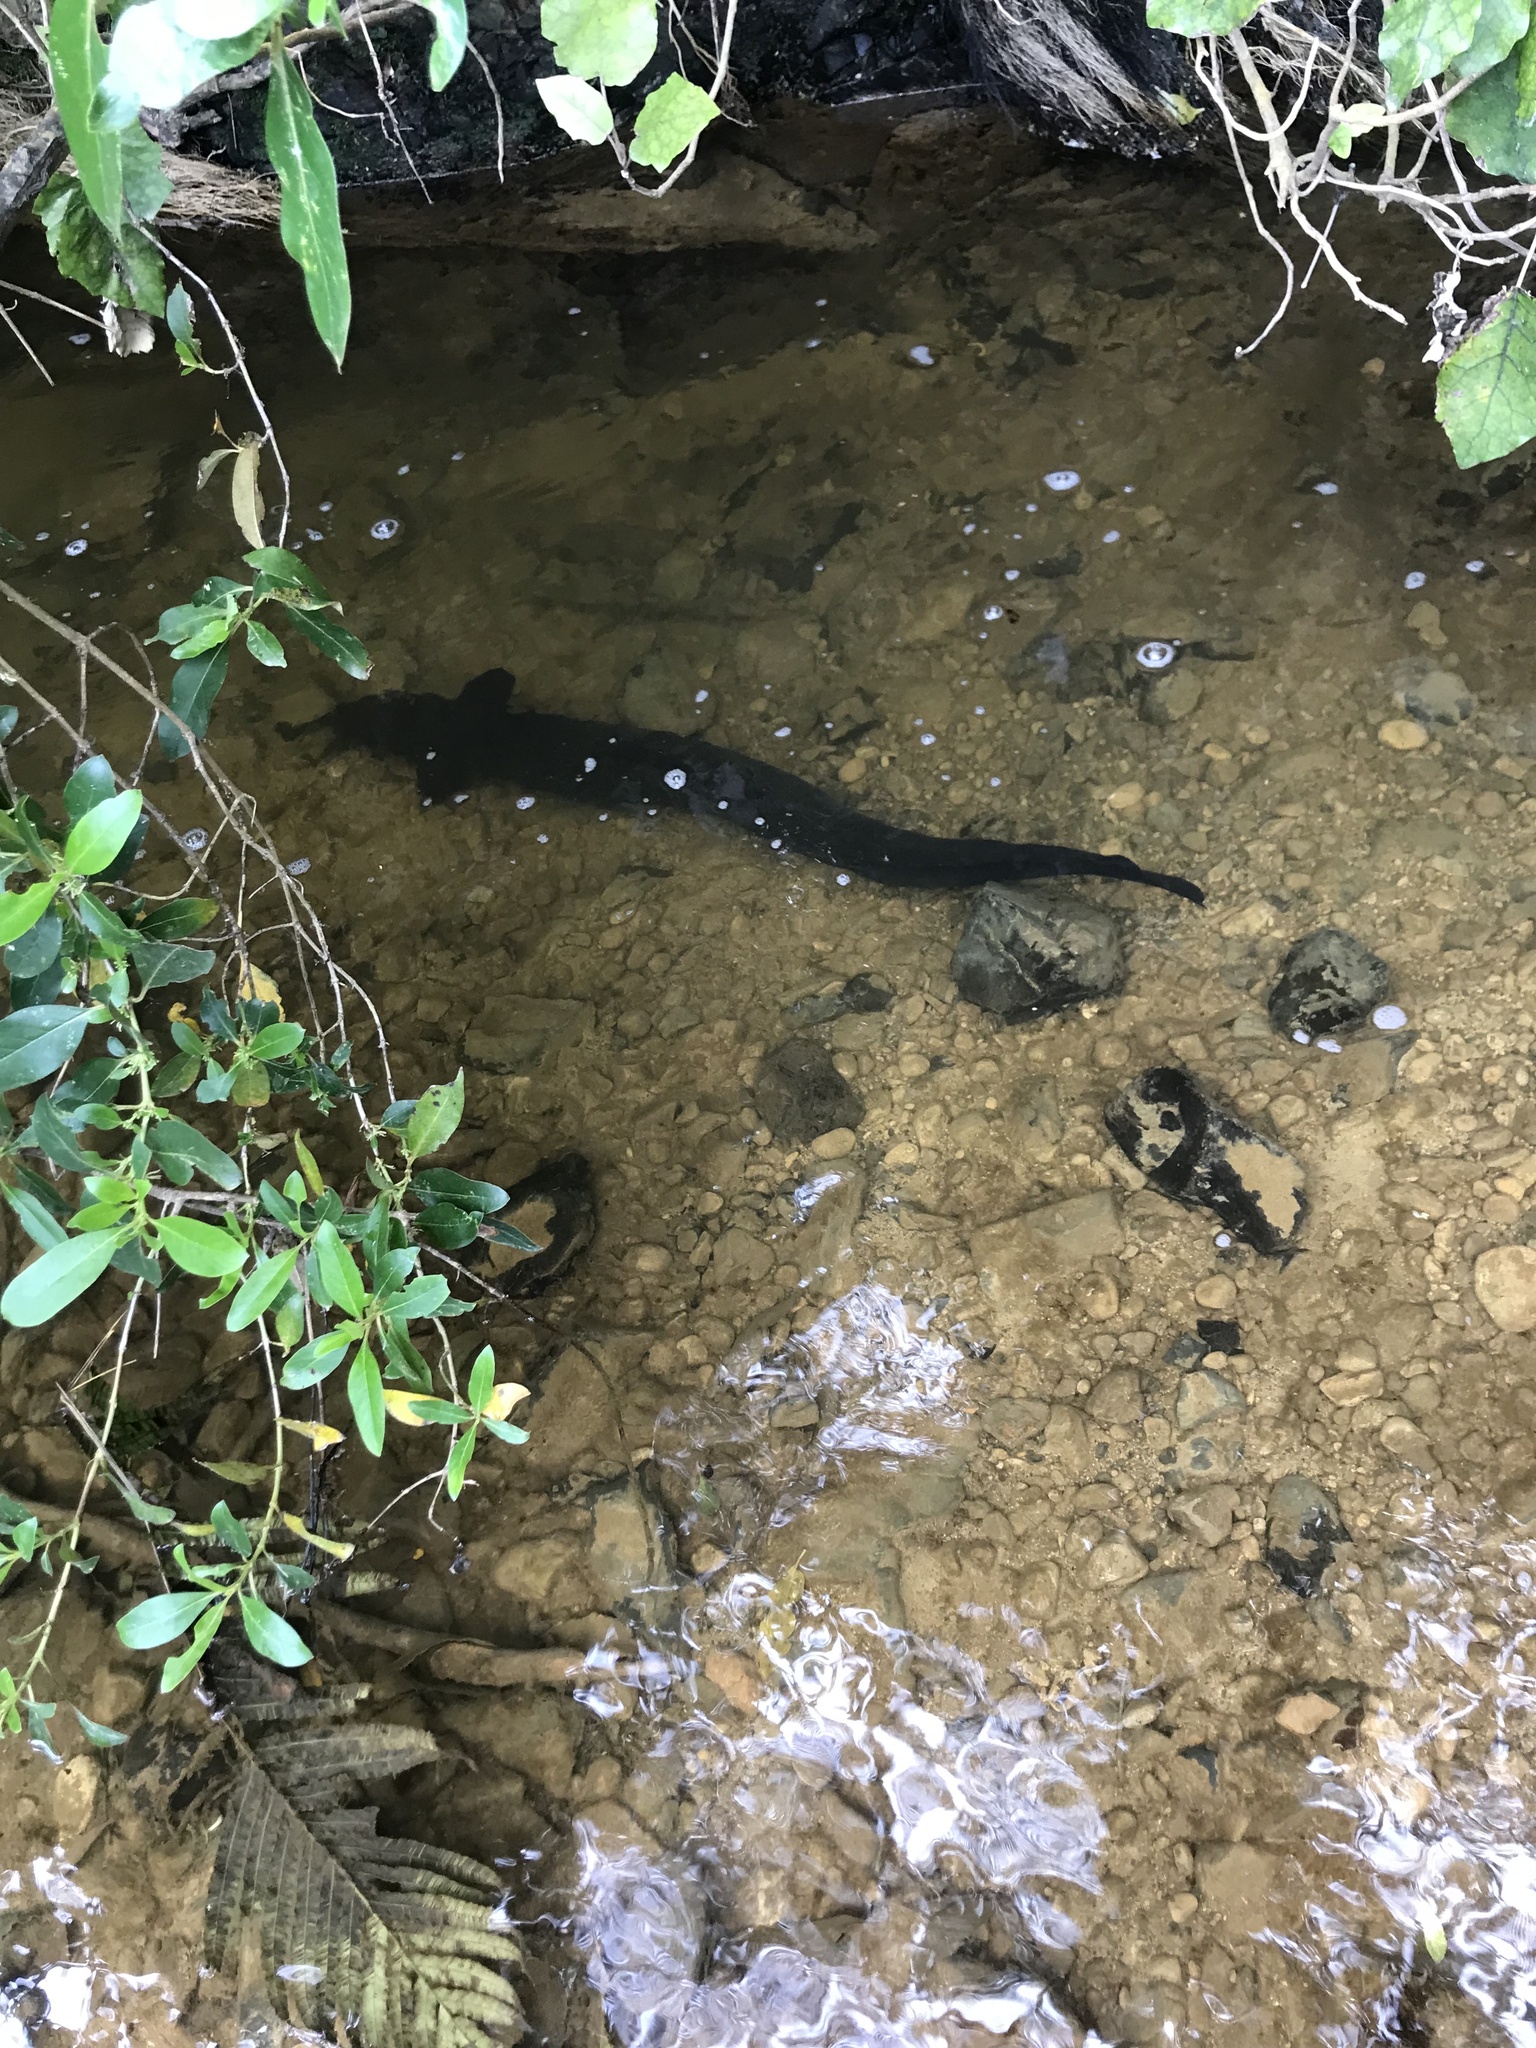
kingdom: Animalia
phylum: Chordata
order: Anguilliformes
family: Anguillidae
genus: Anguilla
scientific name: Anguilla dieffenbachii
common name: New zealand longfin eel
